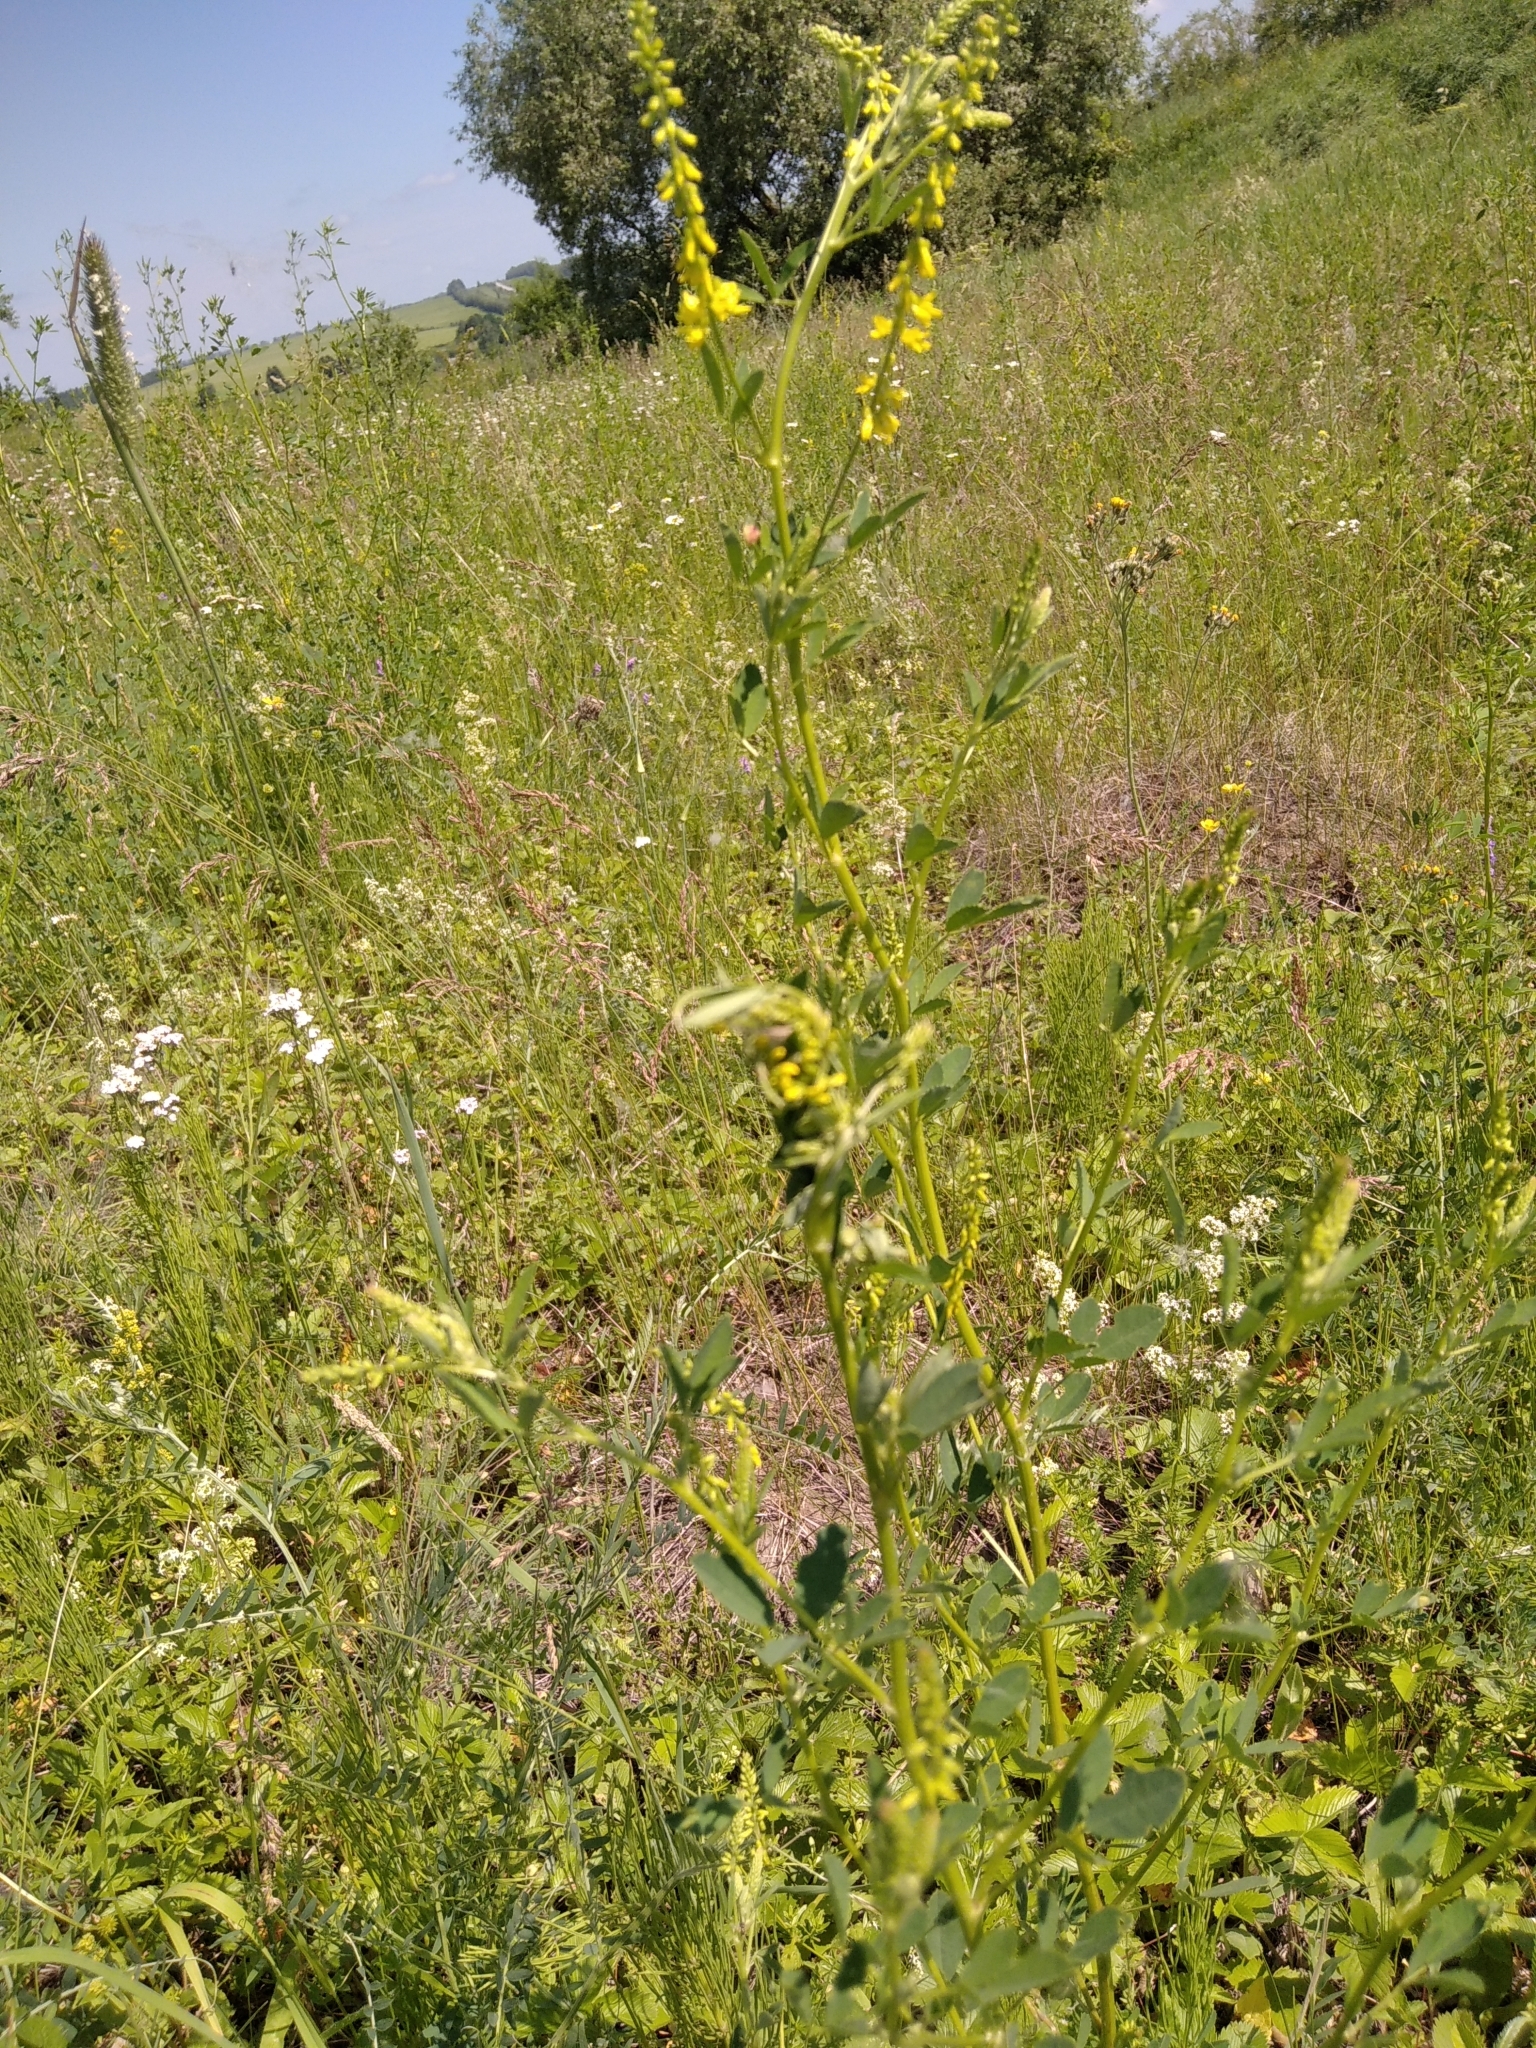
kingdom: Plantae
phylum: Tracheophyta
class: Magnoliopsida
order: Fabales
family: Fabaceae
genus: Melilotus
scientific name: Melilotus officinalis
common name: Sweetclover
